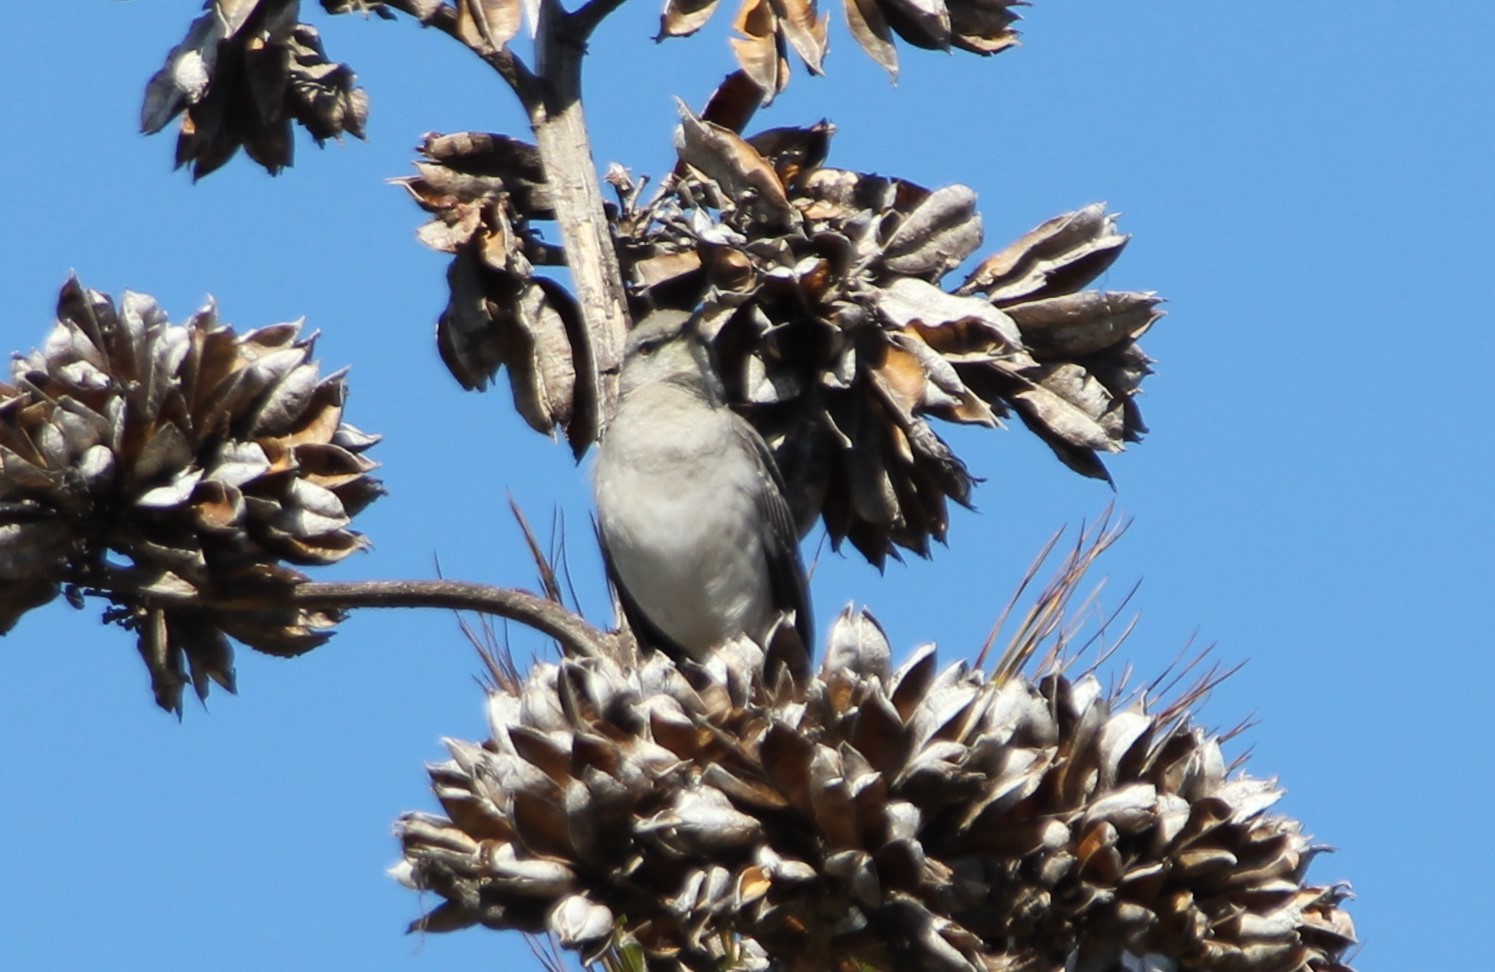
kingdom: Animalia
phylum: Chordata
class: Aves
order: Passeriformes
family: Mimidae
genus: Mimus
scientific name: Mimus polyglottos
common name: Northern mockingbird
